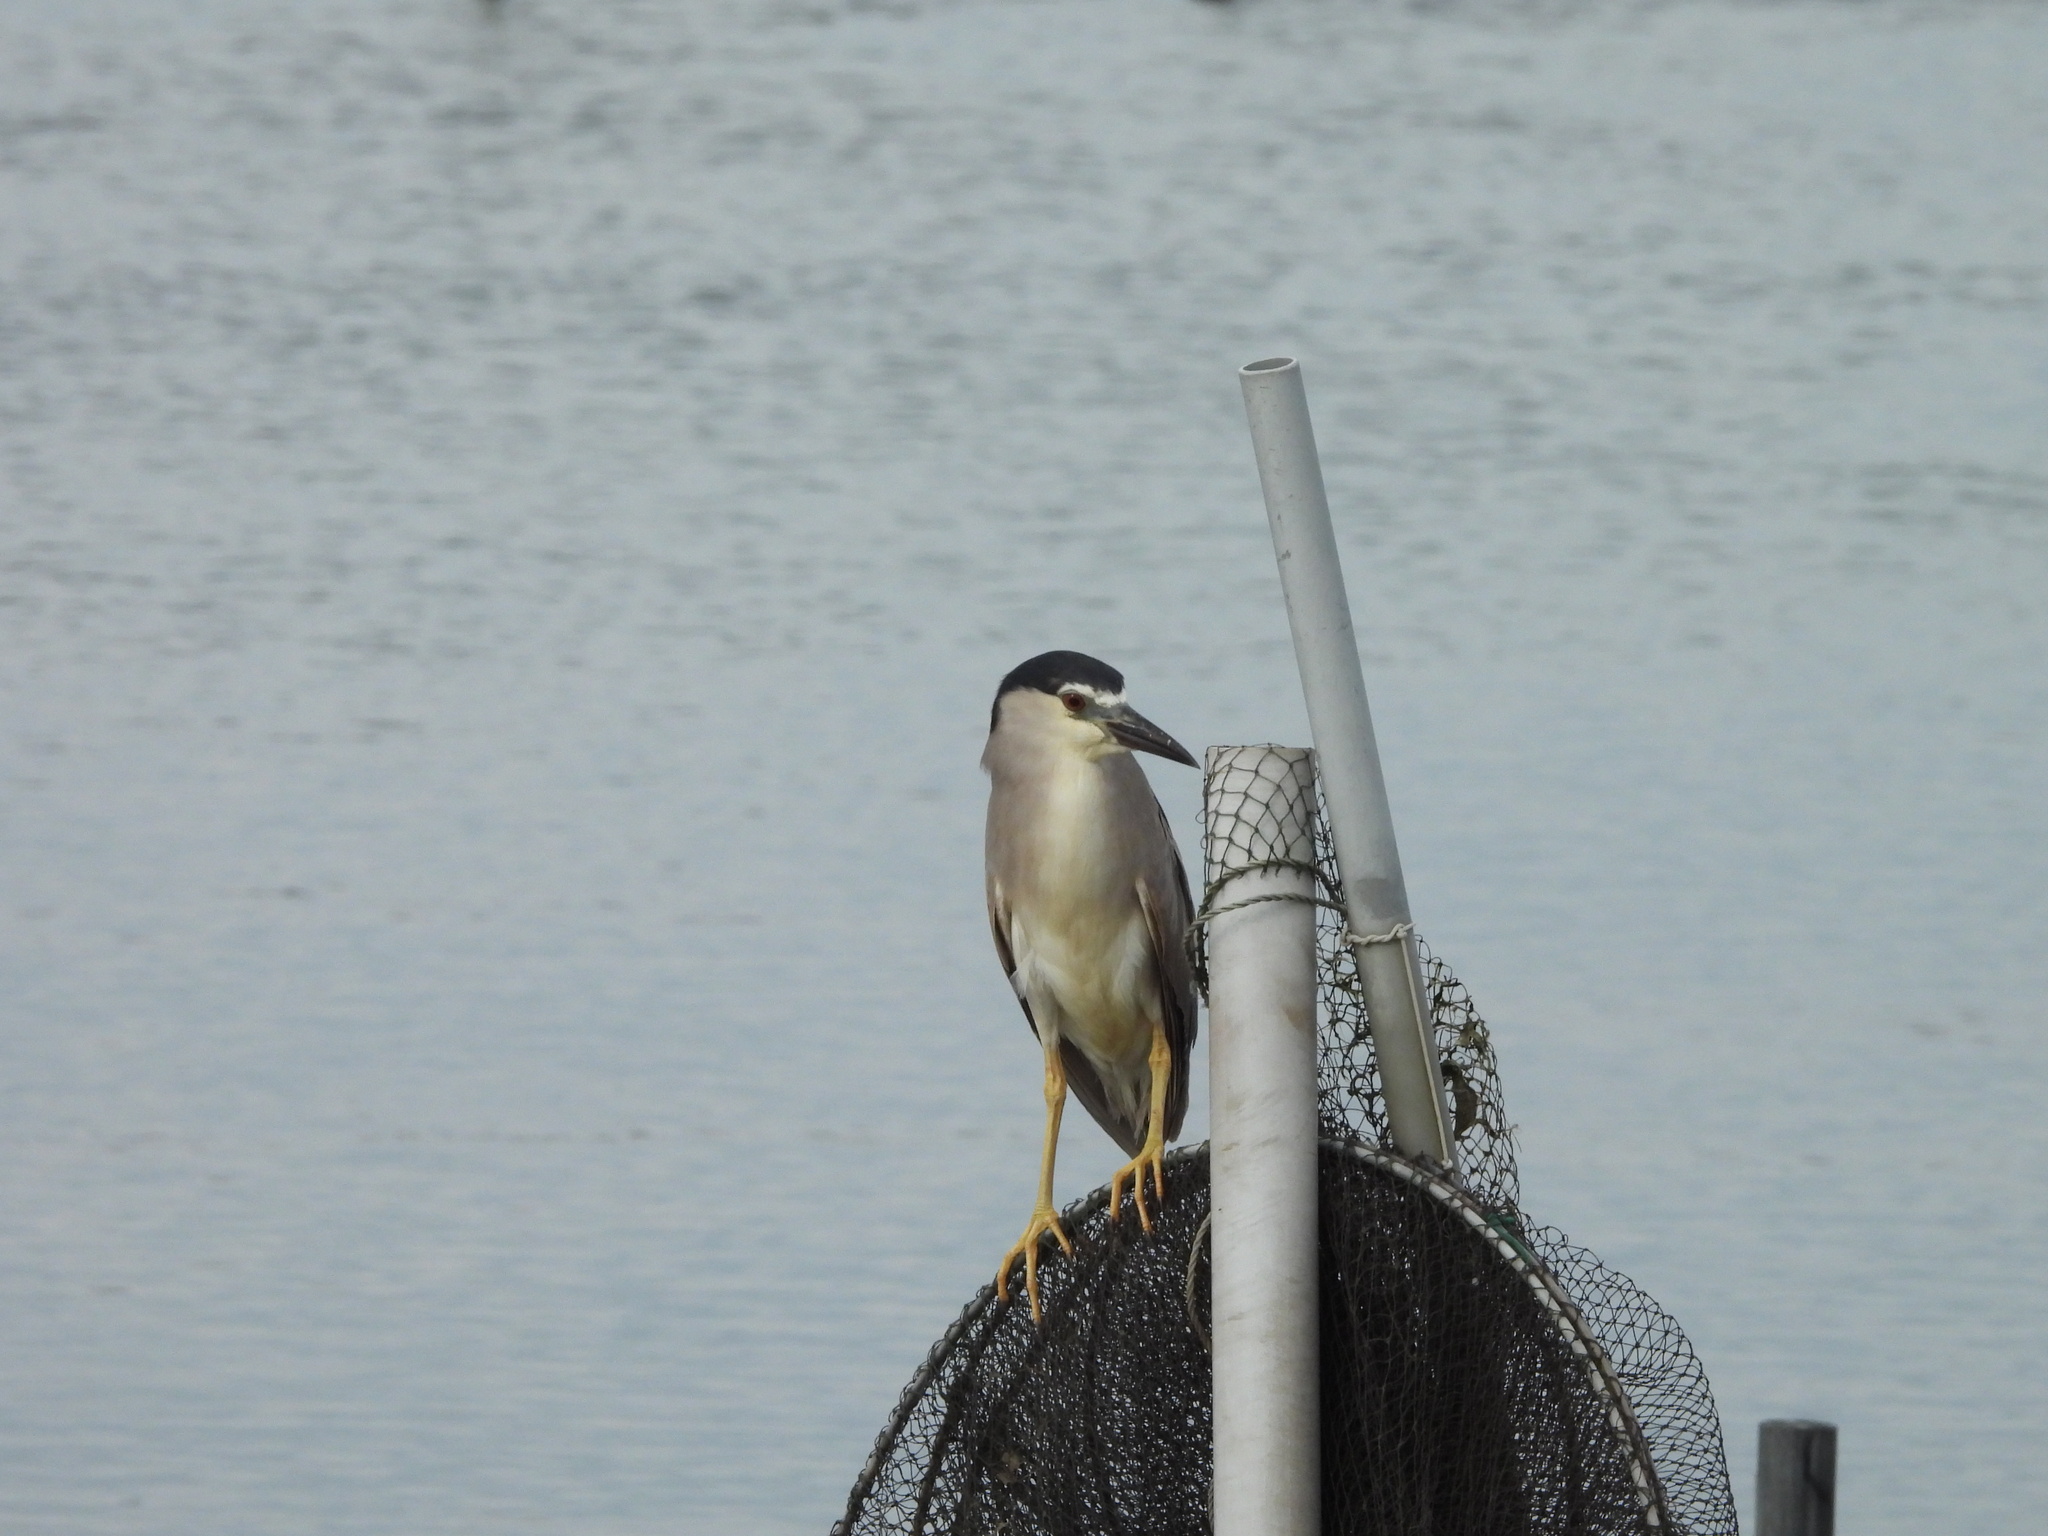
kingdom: Animalia
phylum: Chordata
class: Aves
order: Pelecaniformes
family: Ardeidae
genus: Nycticorax
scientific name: Nycticorax nycticorax
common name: Black-crowned night heron
